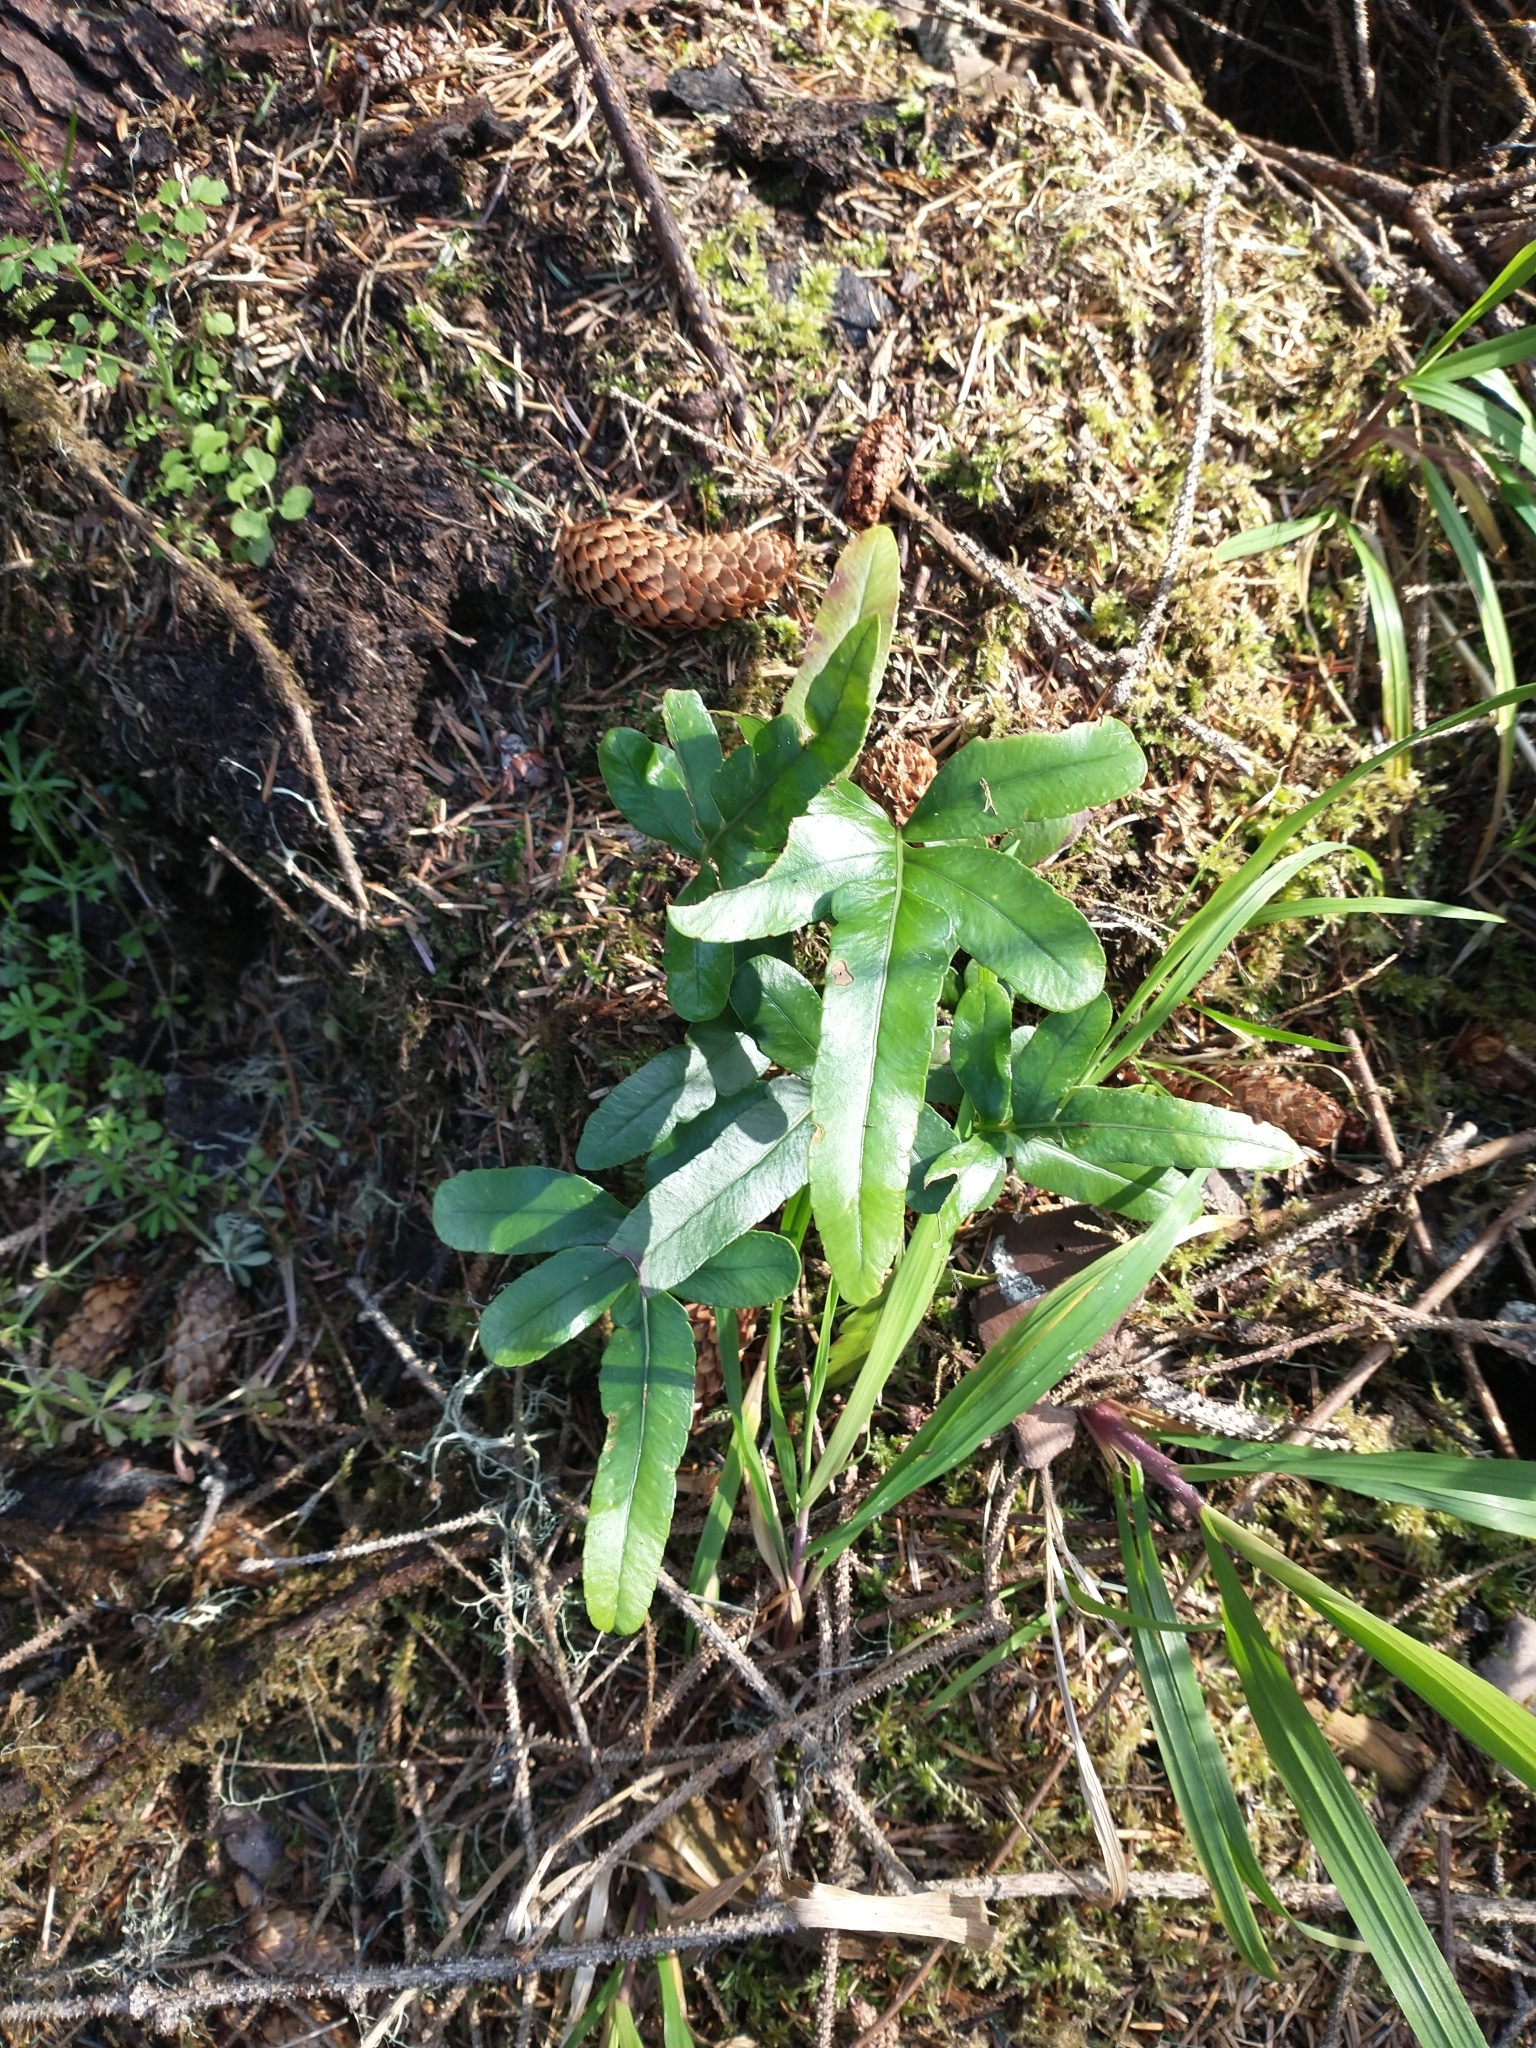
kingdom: Plantae
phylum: Tracheophyta
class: Polypodiopsida
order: Polypodiales
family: Polypodiaceae
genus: Polypodium
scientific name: Polypodium scouleri
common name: Scouler's polypody
